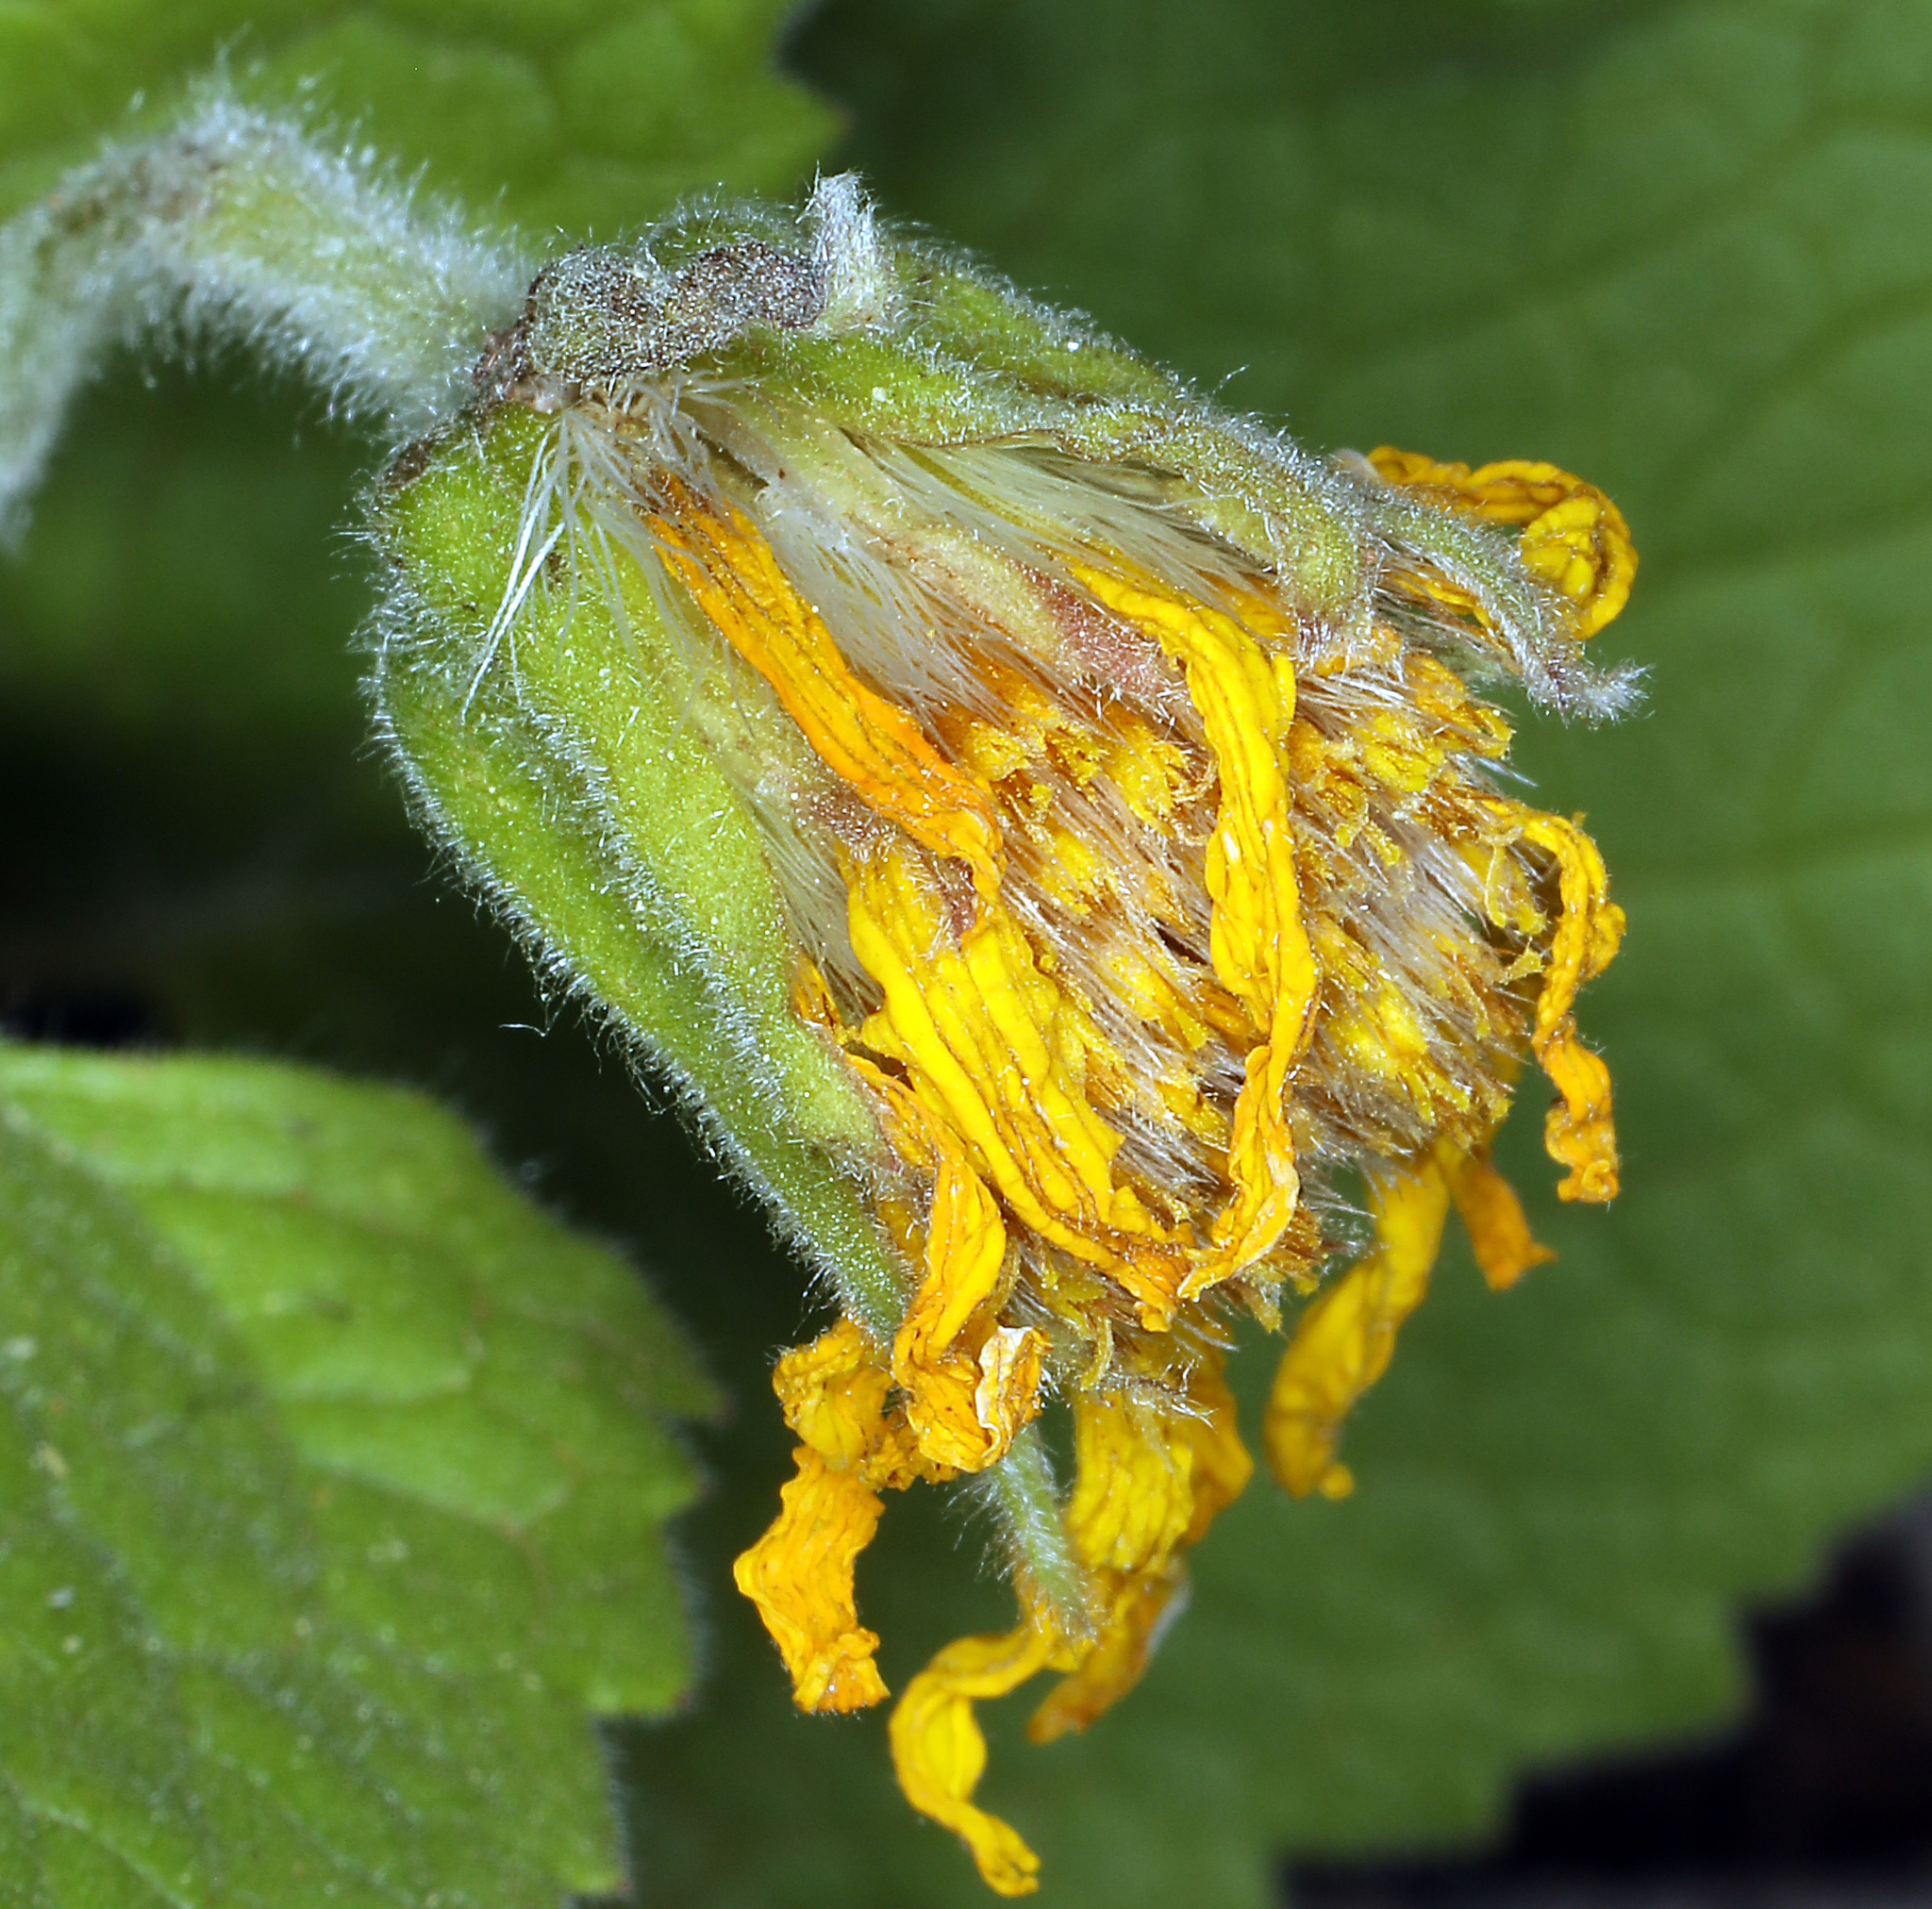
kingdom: Plantae
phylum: Tracheophyta
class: Magnoliopsida
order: Asterales
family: Asteraceae
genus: Arnica
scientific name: Arnica cordifolia
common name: Heart-leaf arnica
